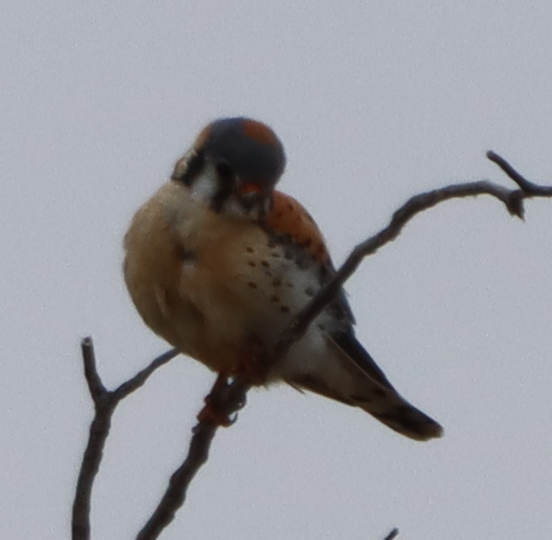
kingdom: Animalia
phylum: Chordata
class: Aves
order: Falconiformes
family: Falconidae
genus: Falco
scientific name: Falco sparverius
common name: American kestrel
